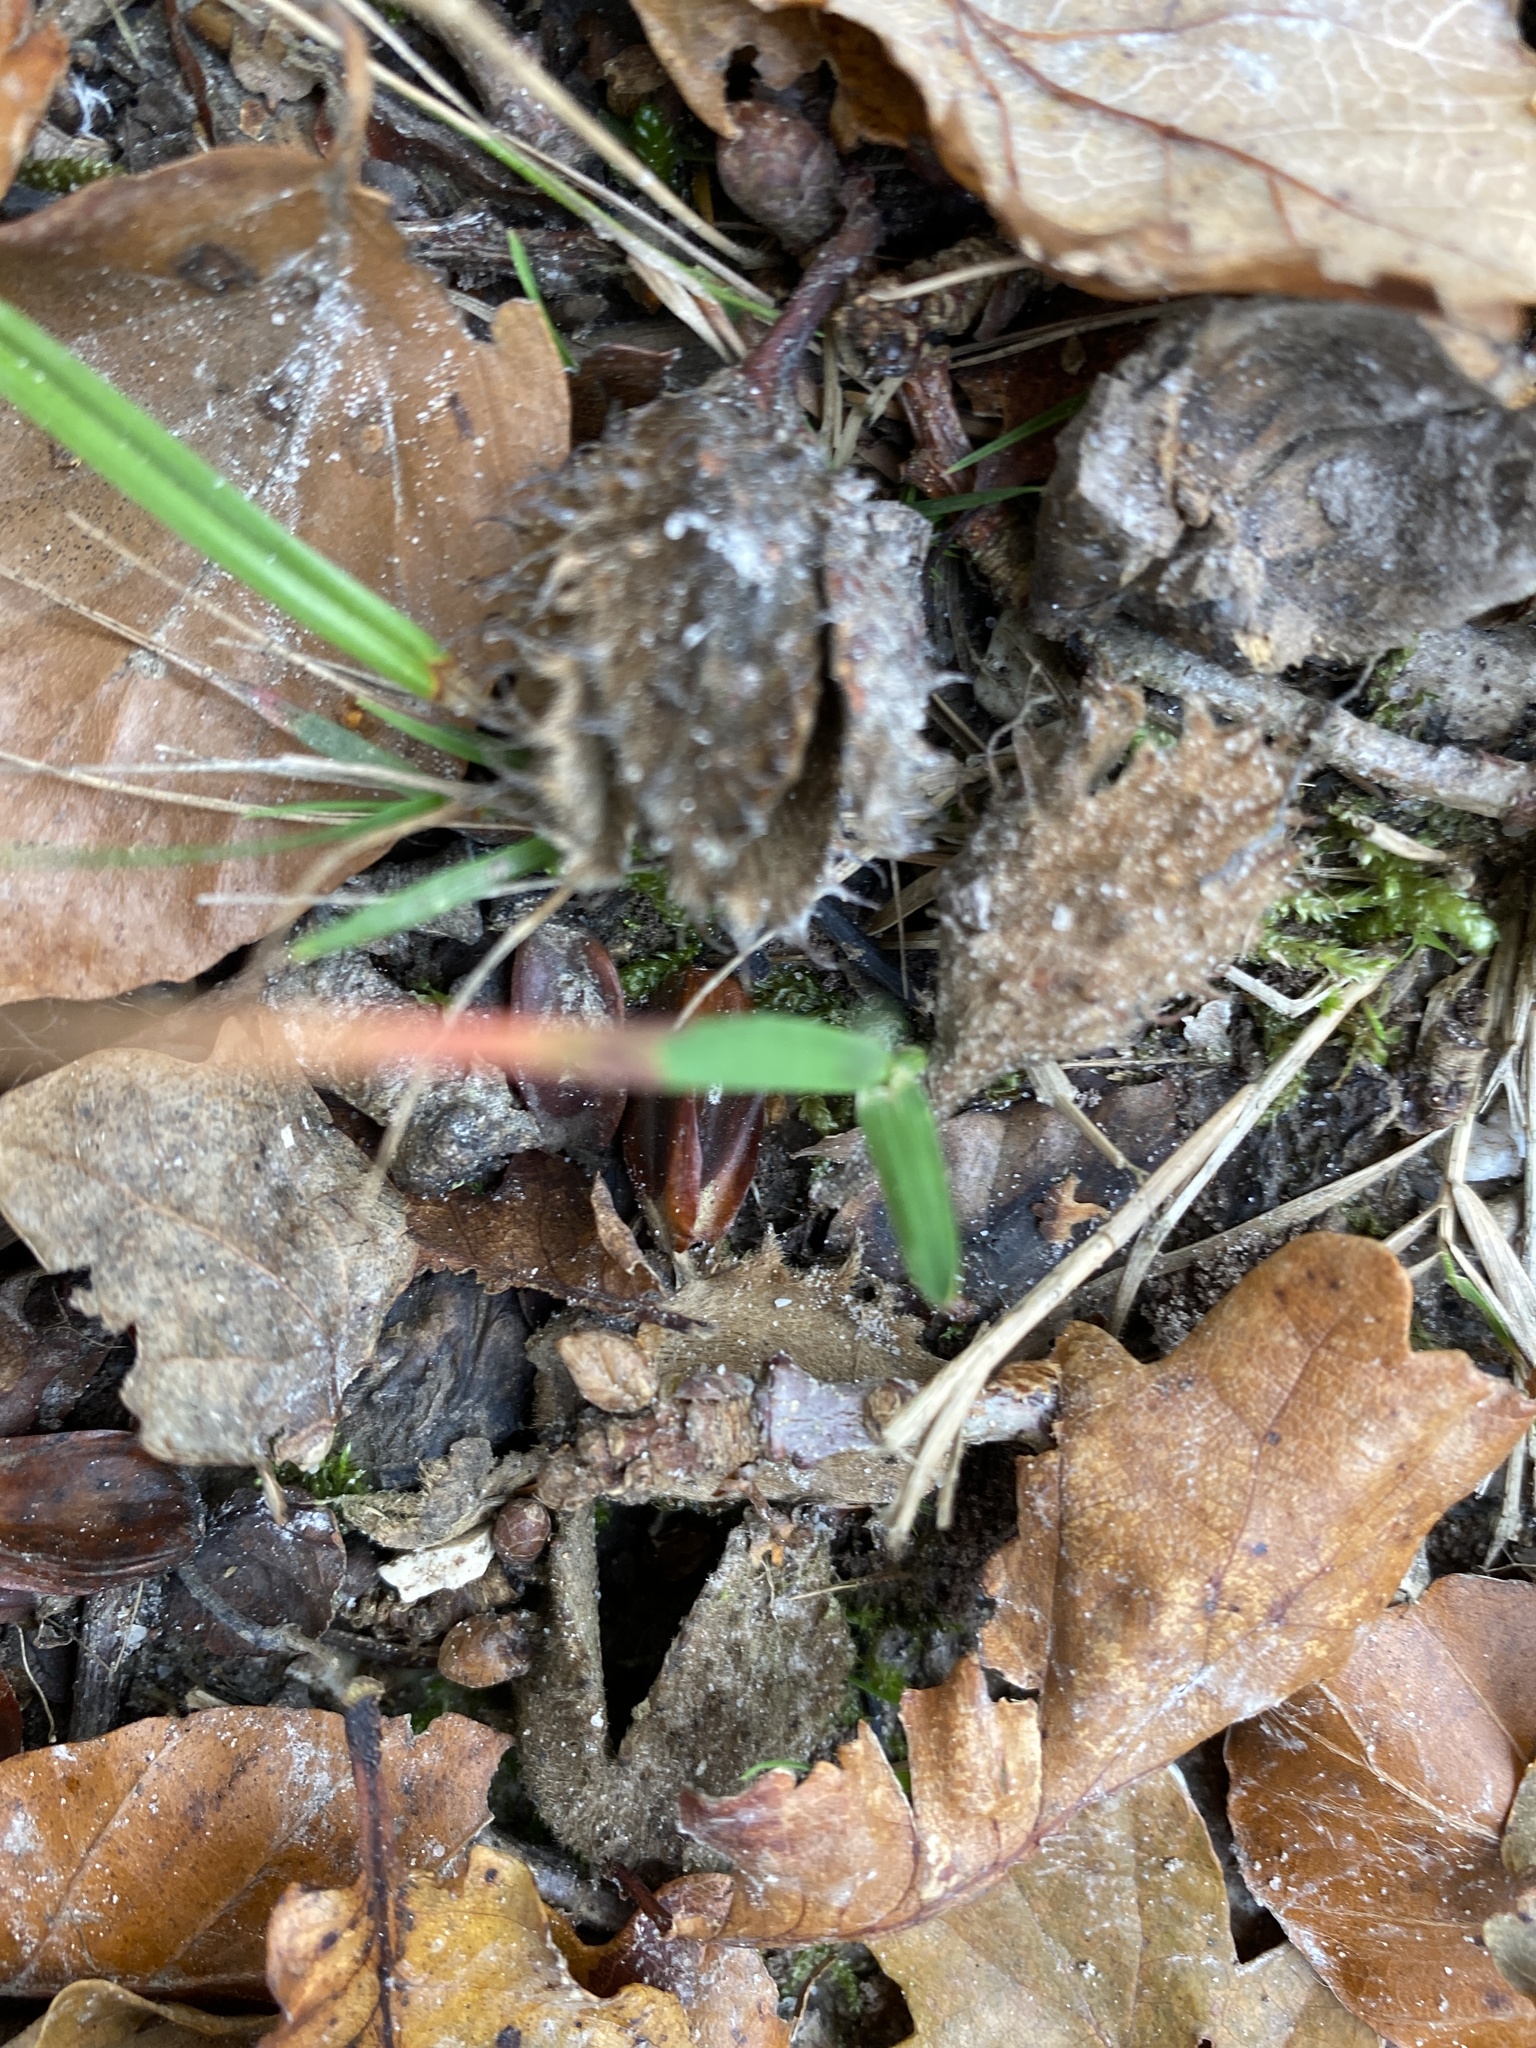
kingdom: Plantae
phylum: Tracheophyta
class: Magnoliopsida
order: Fagales
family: Fagaceae
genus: Fagus
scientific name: Fagus sylvatica
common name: Beech
